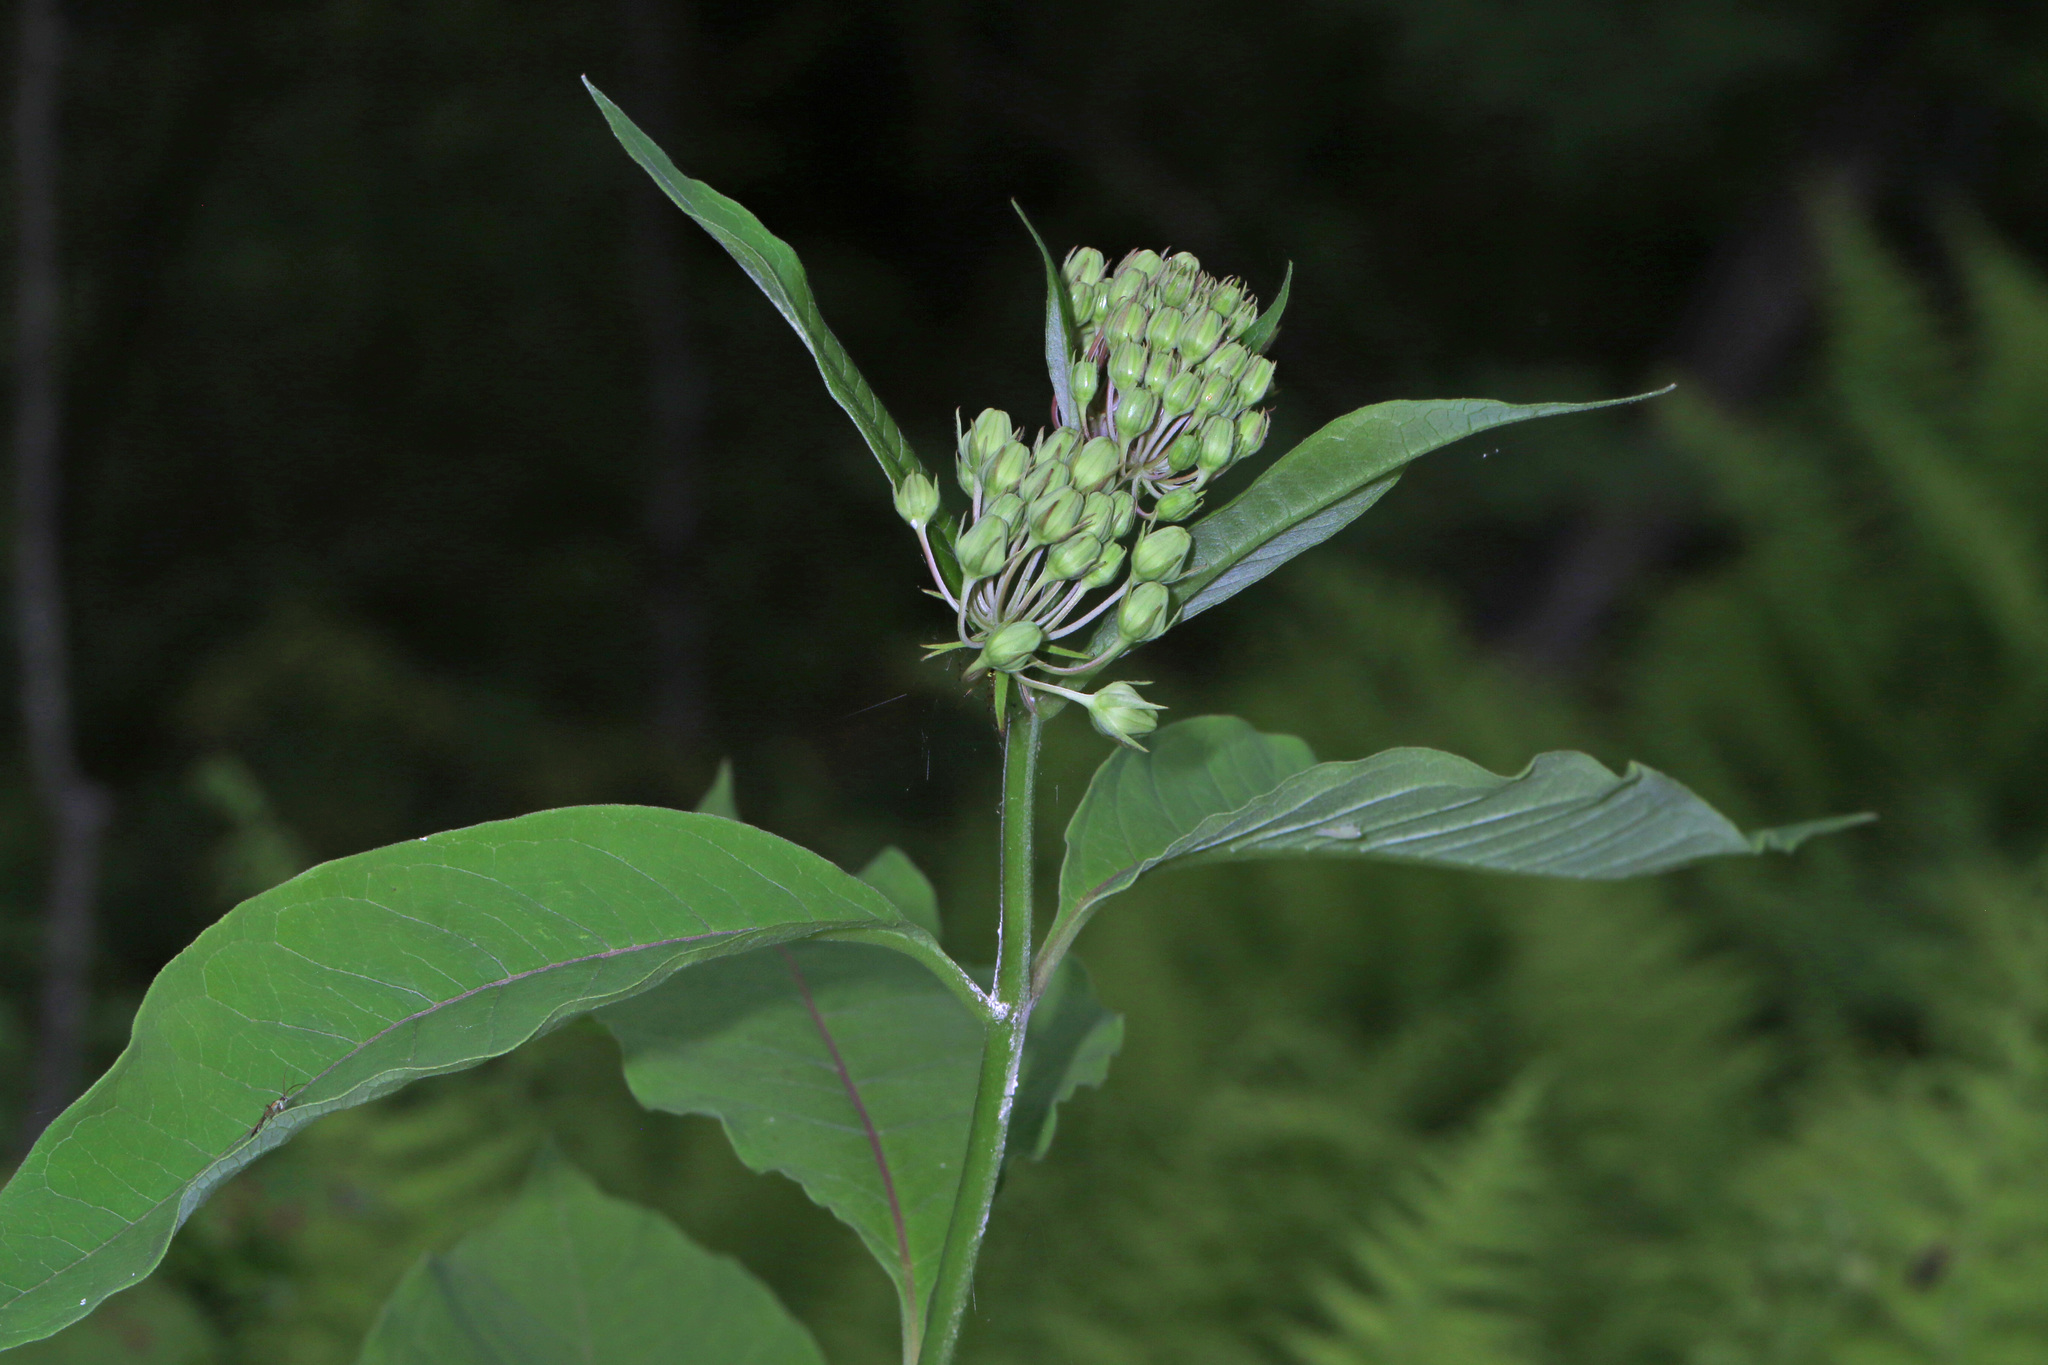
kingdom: Plantae
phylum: Tracheophyta
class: Magnoliopsida
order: Gentianales
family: Apocynaceae
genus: Asclepias
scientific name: Asclepias exaltata
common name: Poke milkweed
